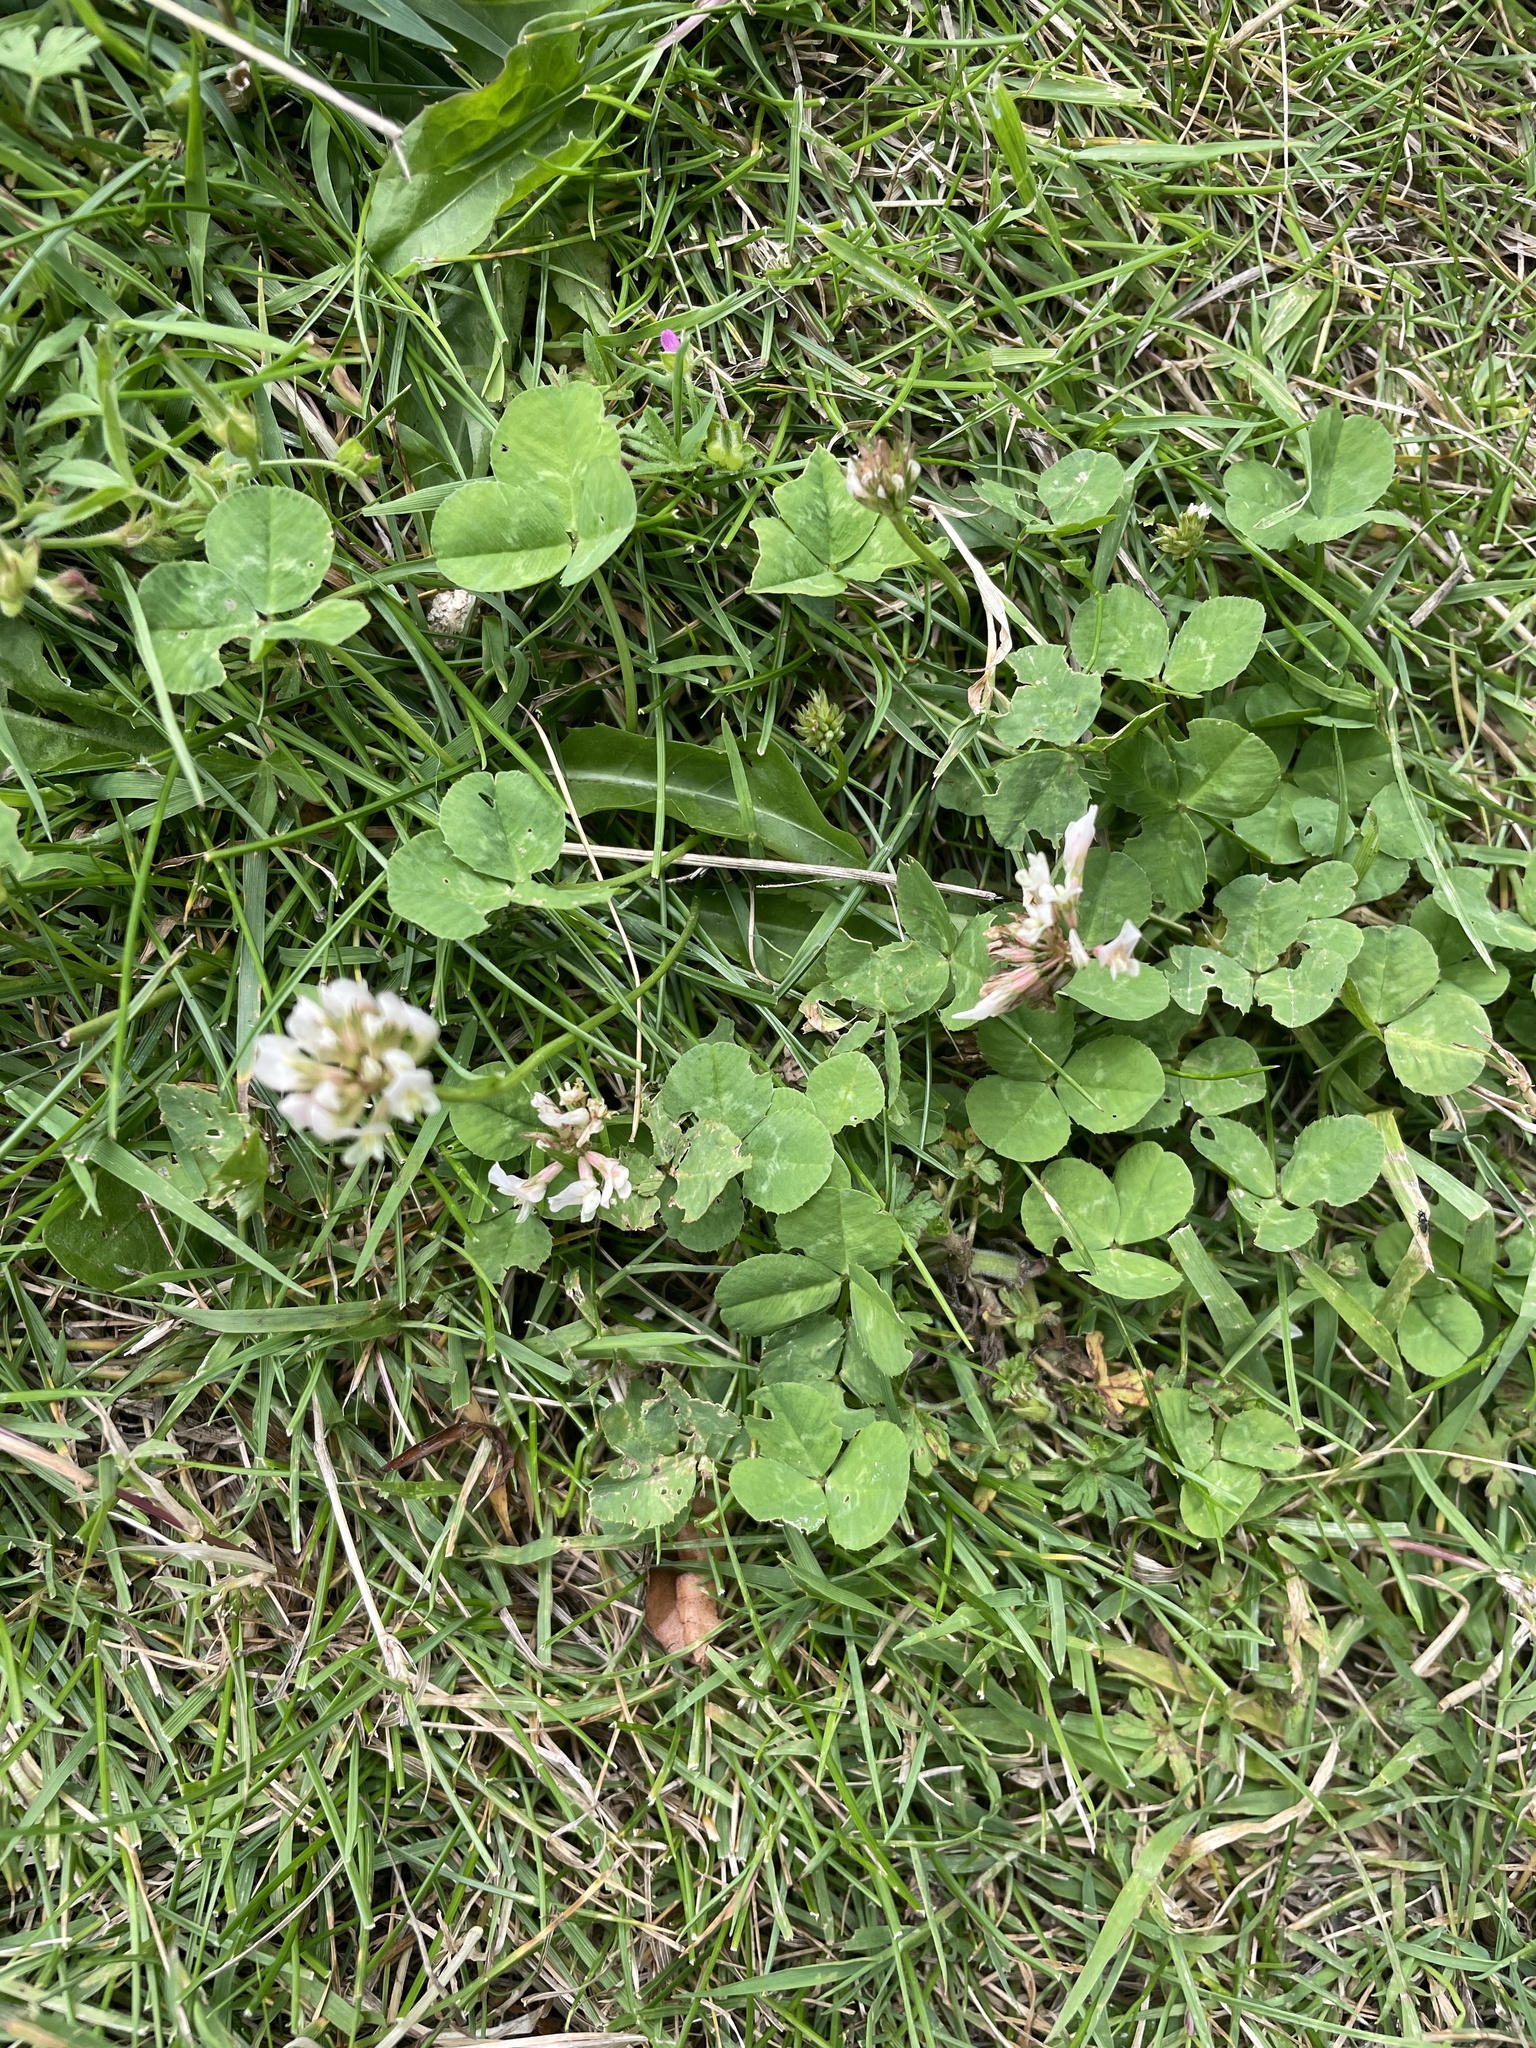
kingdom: Plantae
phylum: Tracheophyta
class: Magnoliopsida
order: Fabales
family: Fabaceae
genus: Trifolium
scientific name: Trifolium repens
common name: White clover
